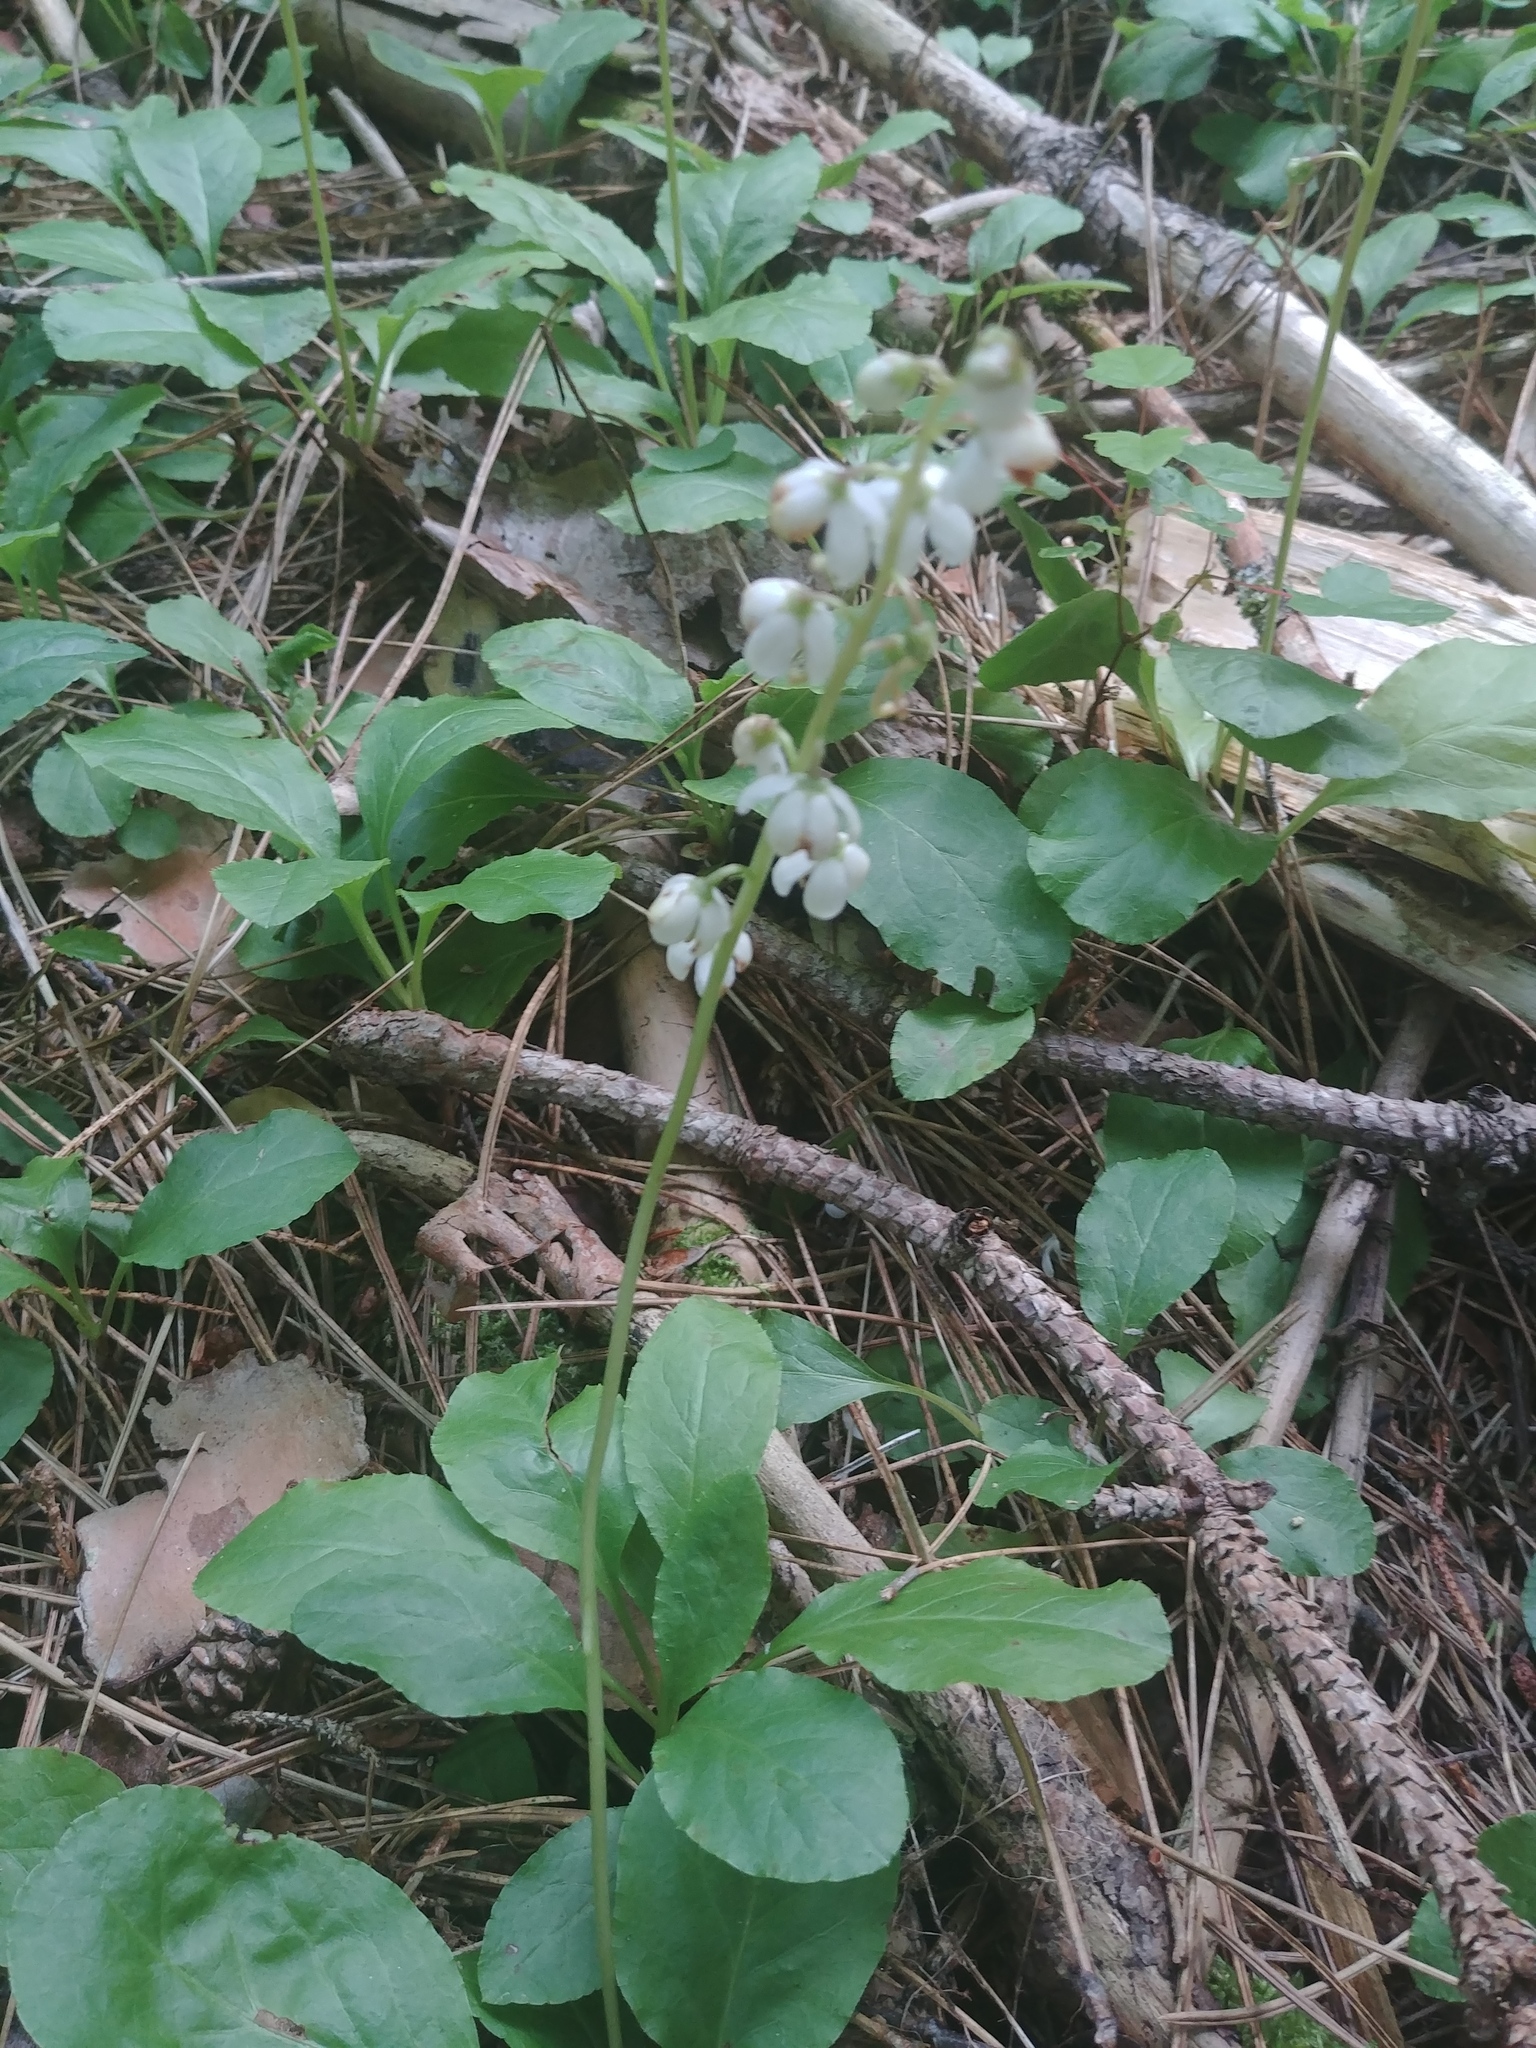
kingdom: Plantae
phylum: Tracheophyta
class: Magnoliopsida
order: Ericales
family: Ericaceae
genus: Pyrola
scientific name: Pyrola elliptica
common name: Shinleaf
